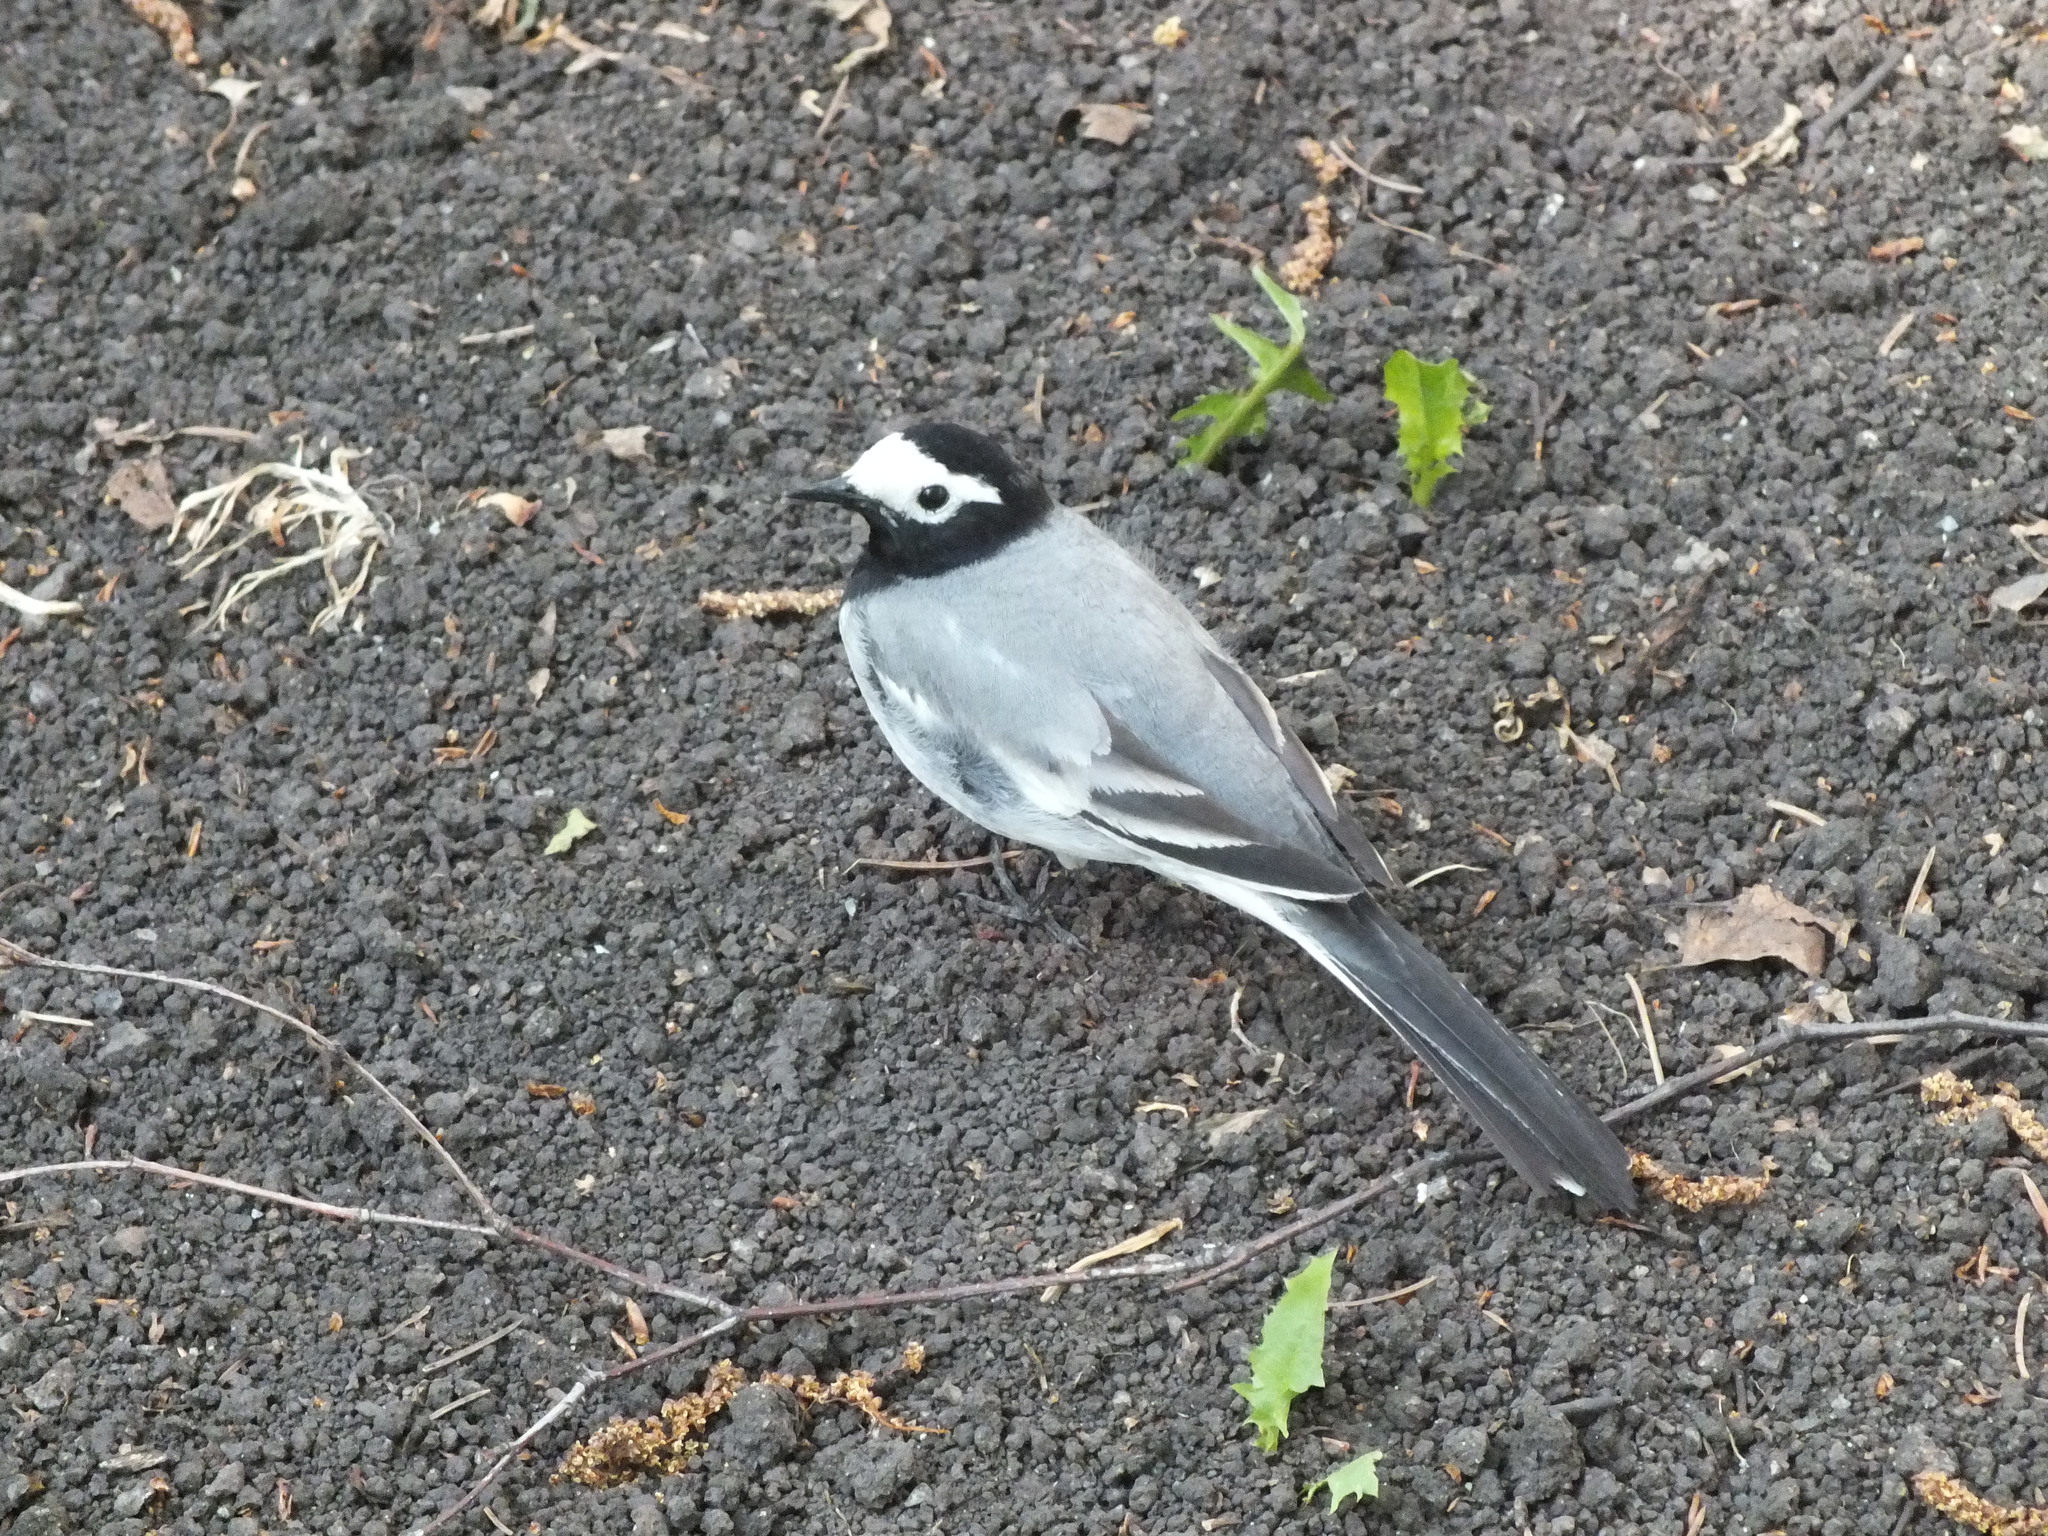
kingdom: Animalia
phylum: Chordata
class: Aves
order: Passeriformes
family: Motacillidae
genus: Motacilla
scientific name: Motacilla alba
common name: White wagtail
